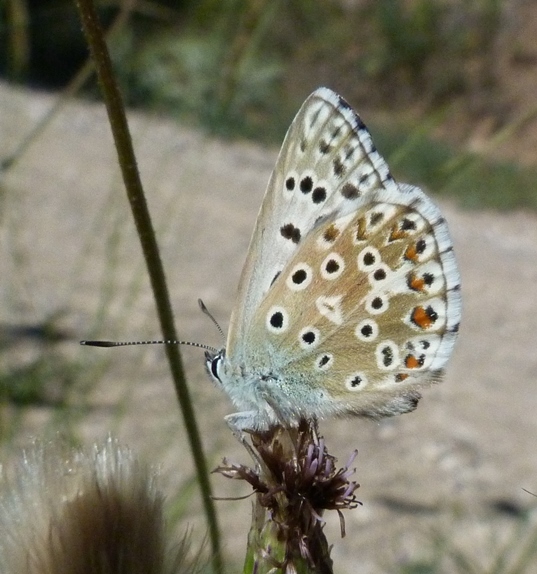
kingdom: Animalia
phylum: Arthropoda
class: Insecta
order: Lepidoptera
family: Lycaenidae
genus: Lysandra
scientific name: Lysandra hispana
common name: Provence chalkhill blue
